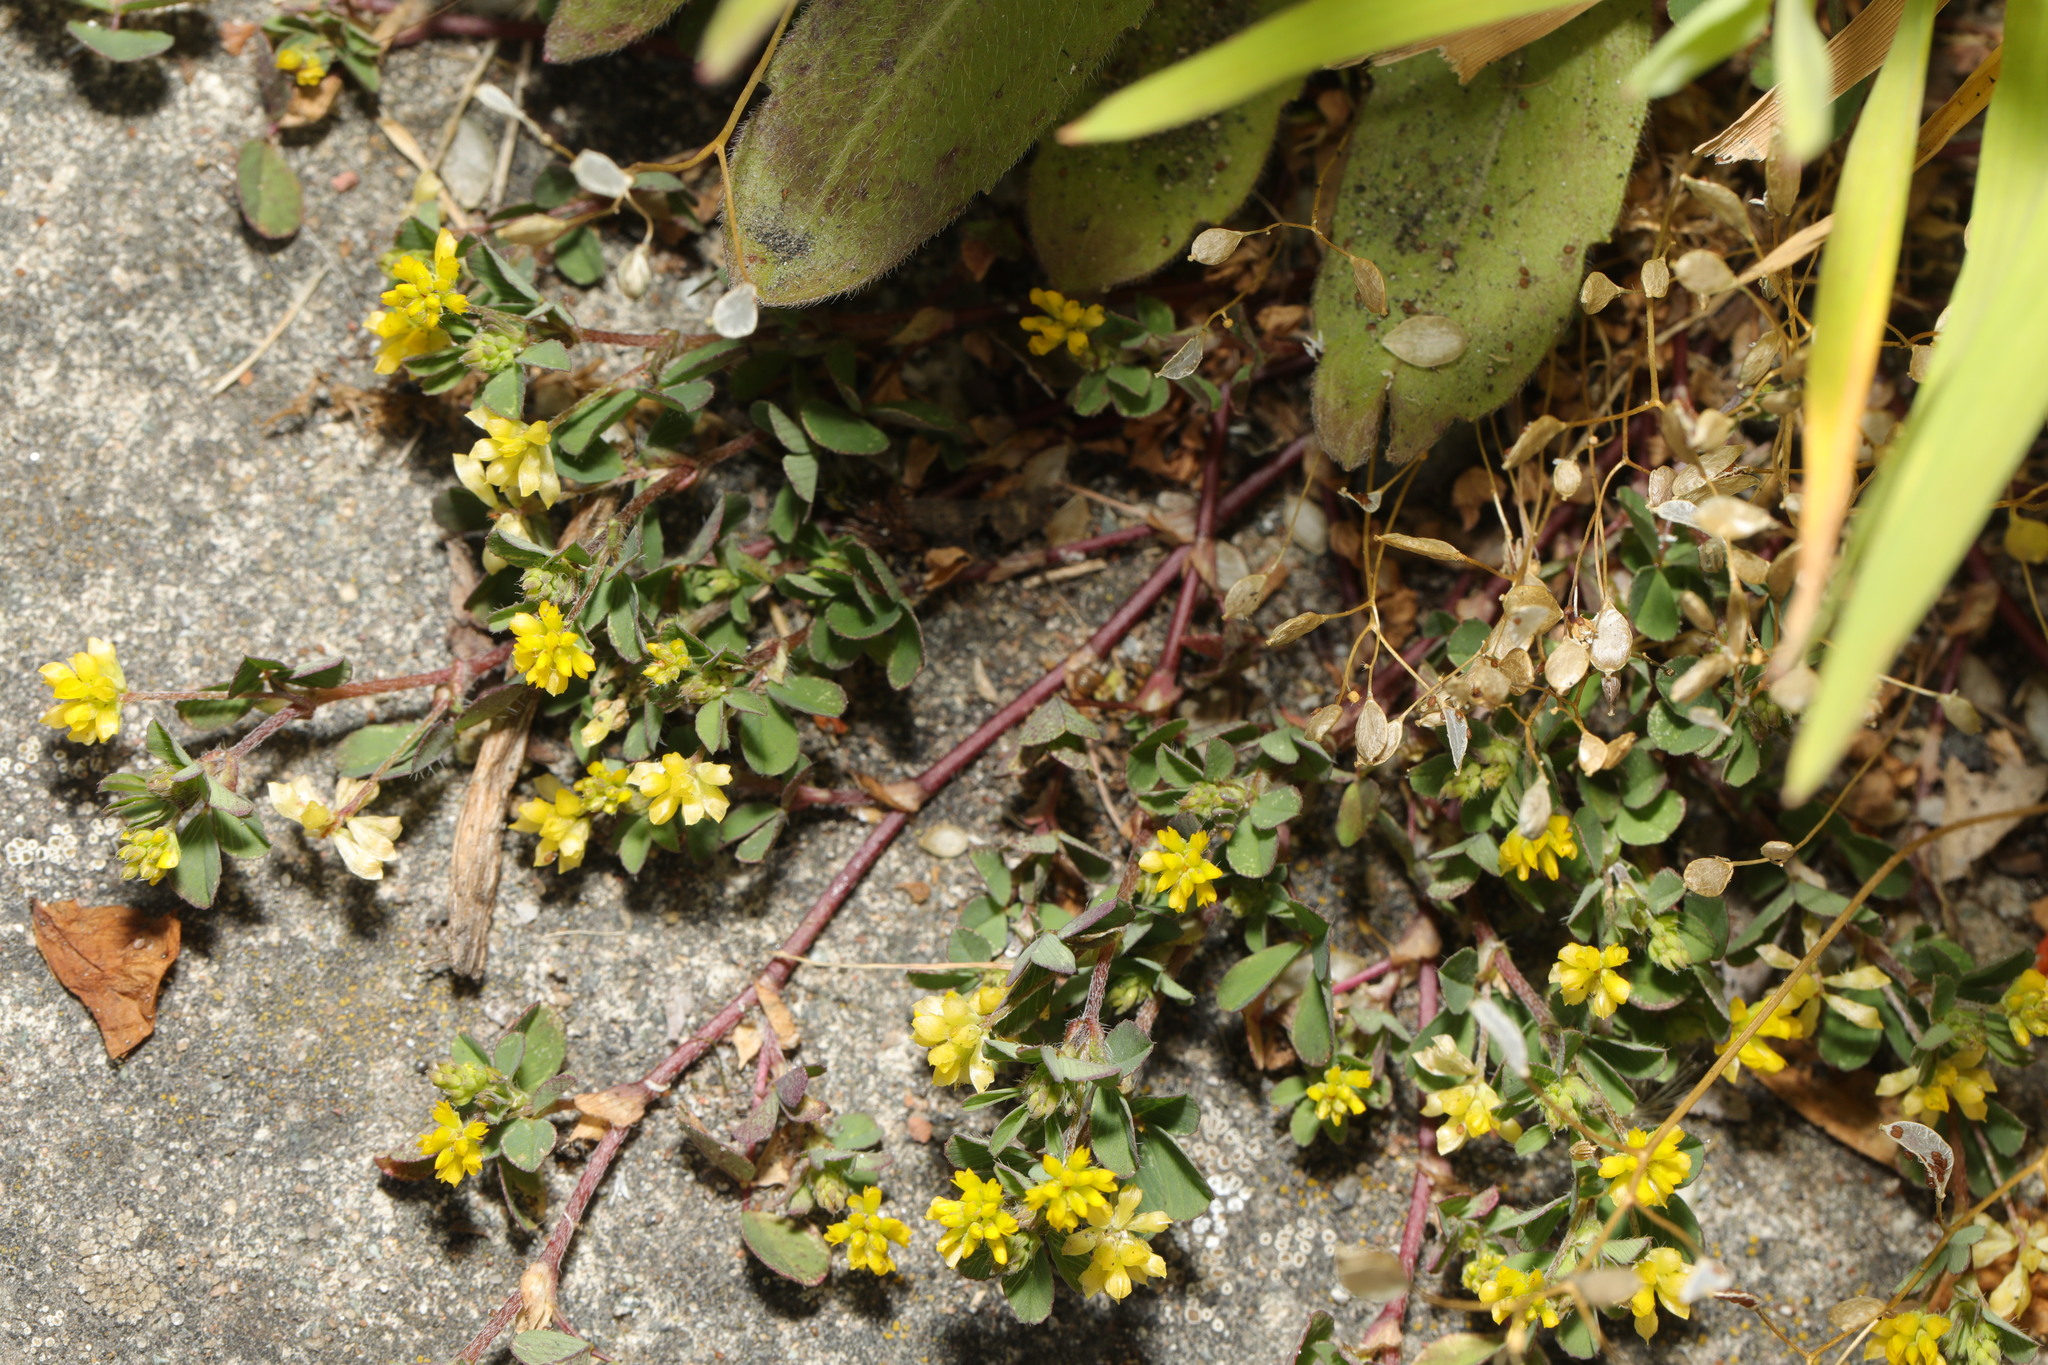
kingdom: Plantae
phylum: Tracheophyta
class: Magnoliopsida
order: Fabales
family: Fabaceae
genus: Trifolium
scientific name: Trifolium dubium
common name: Suckling clover
